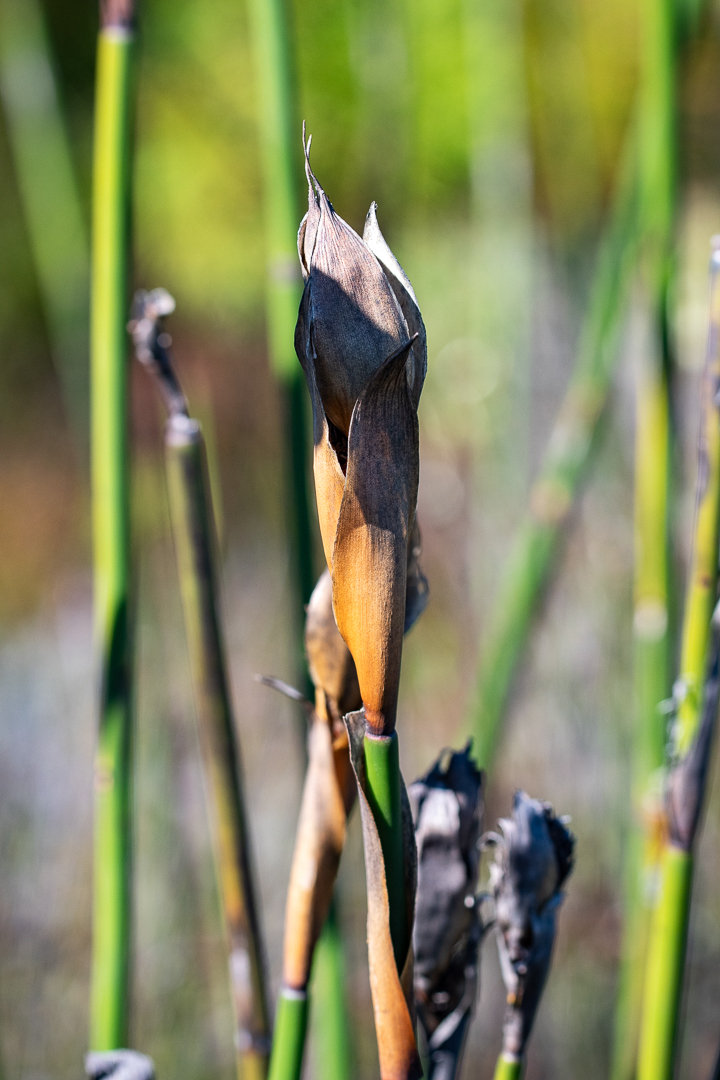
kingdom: Plantae
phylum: Tracheophyta
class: Liliopsida
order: Poales
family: Restionaceae
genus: Elegia
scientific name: Elegia mucronata
